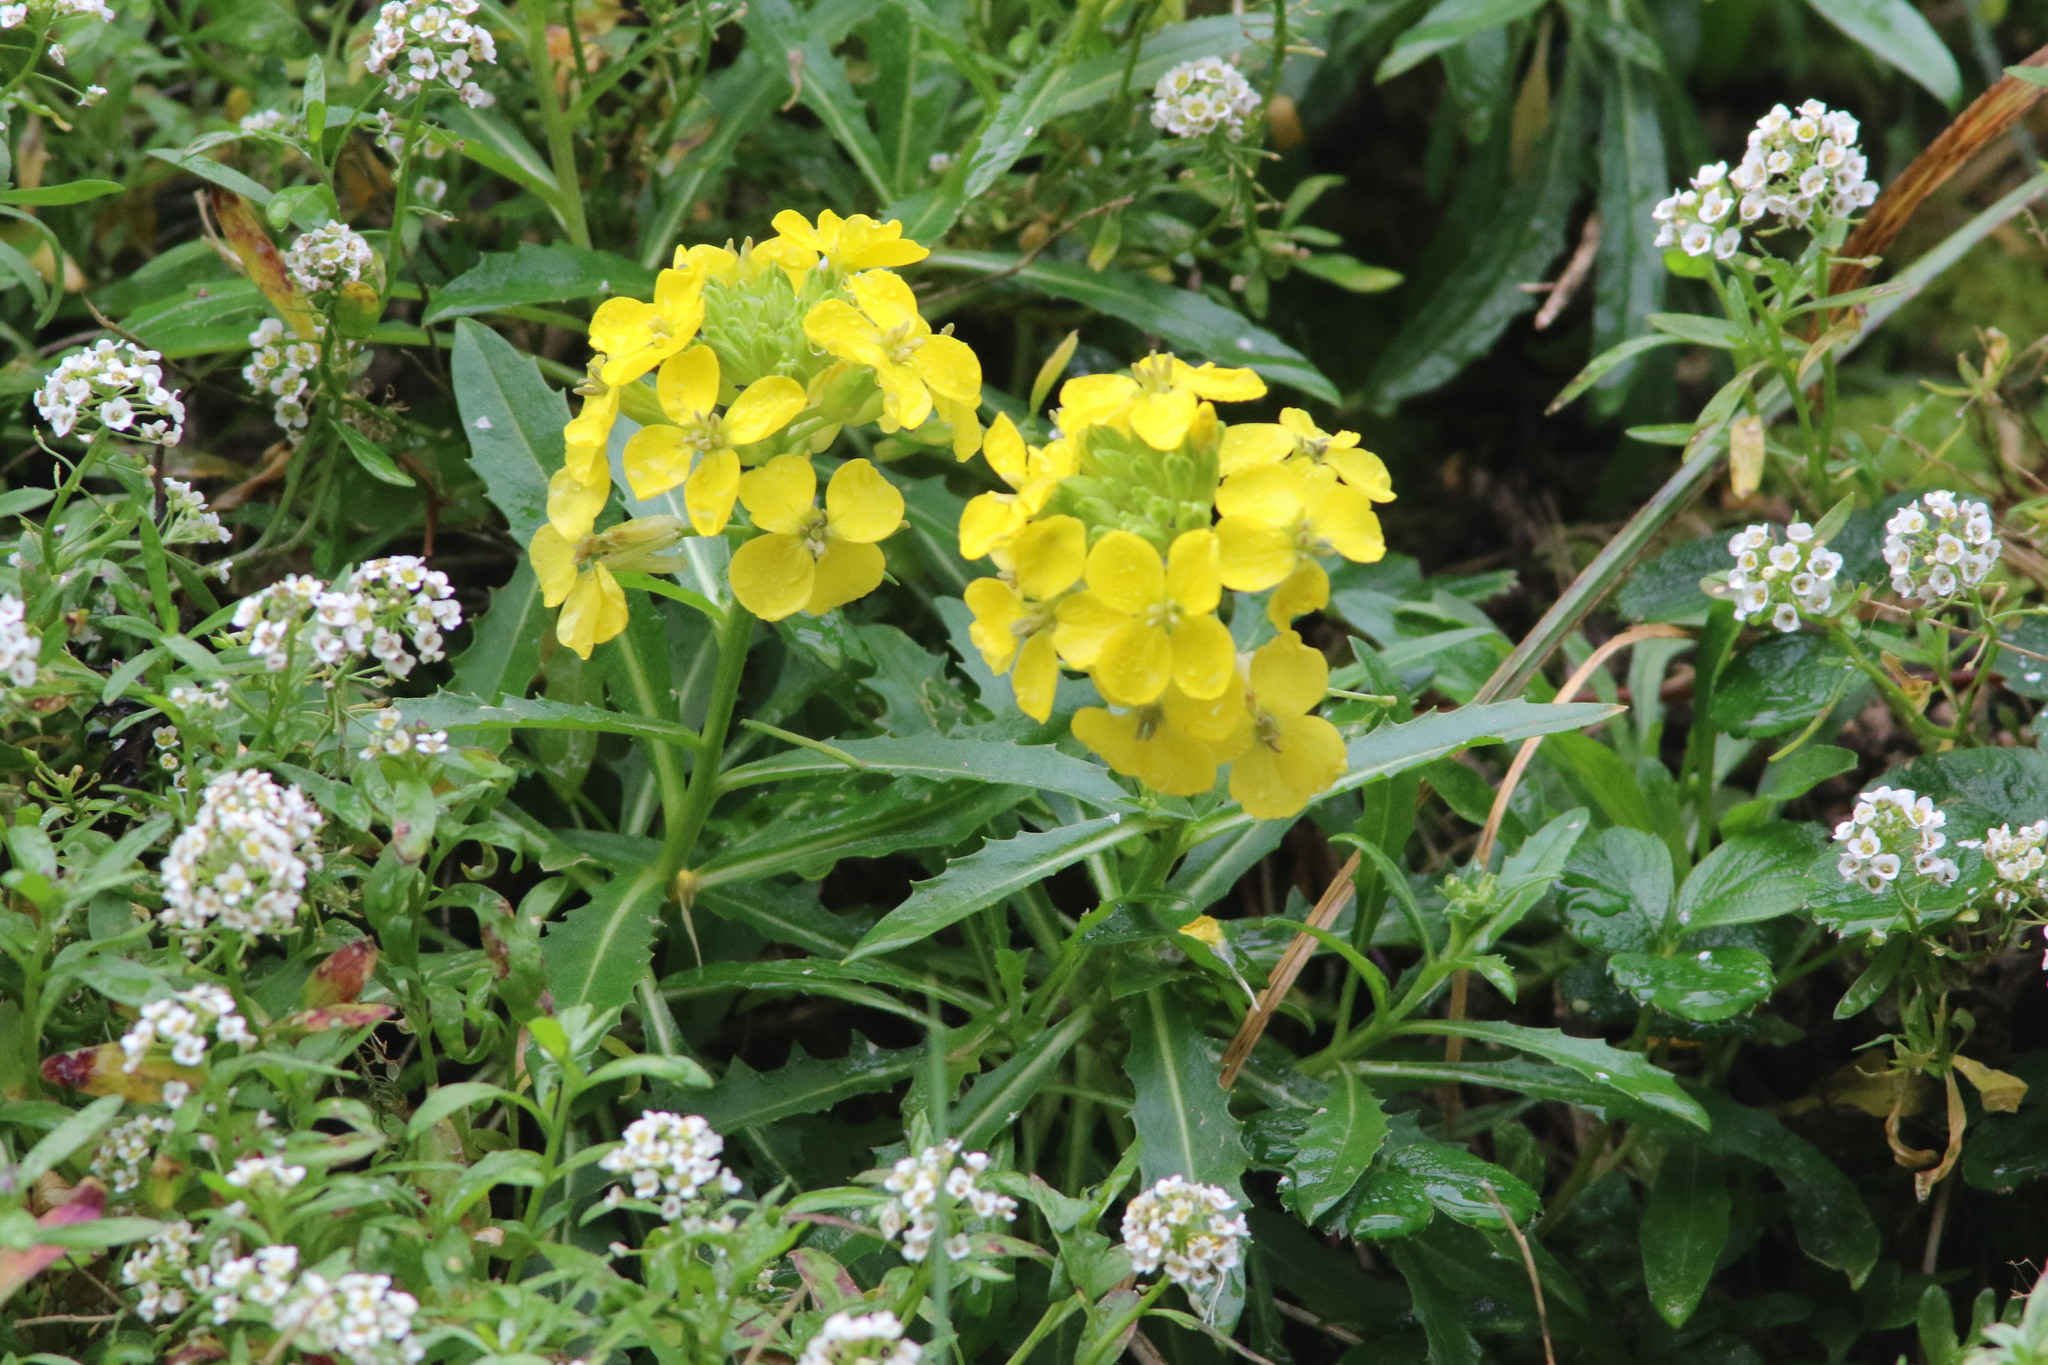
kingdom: Plantae
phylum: Tracheophyta
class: Magnoliopsida
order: Brassicales
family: Brassicaceae
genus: Erysimum
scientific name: Erysimum franciscanum
